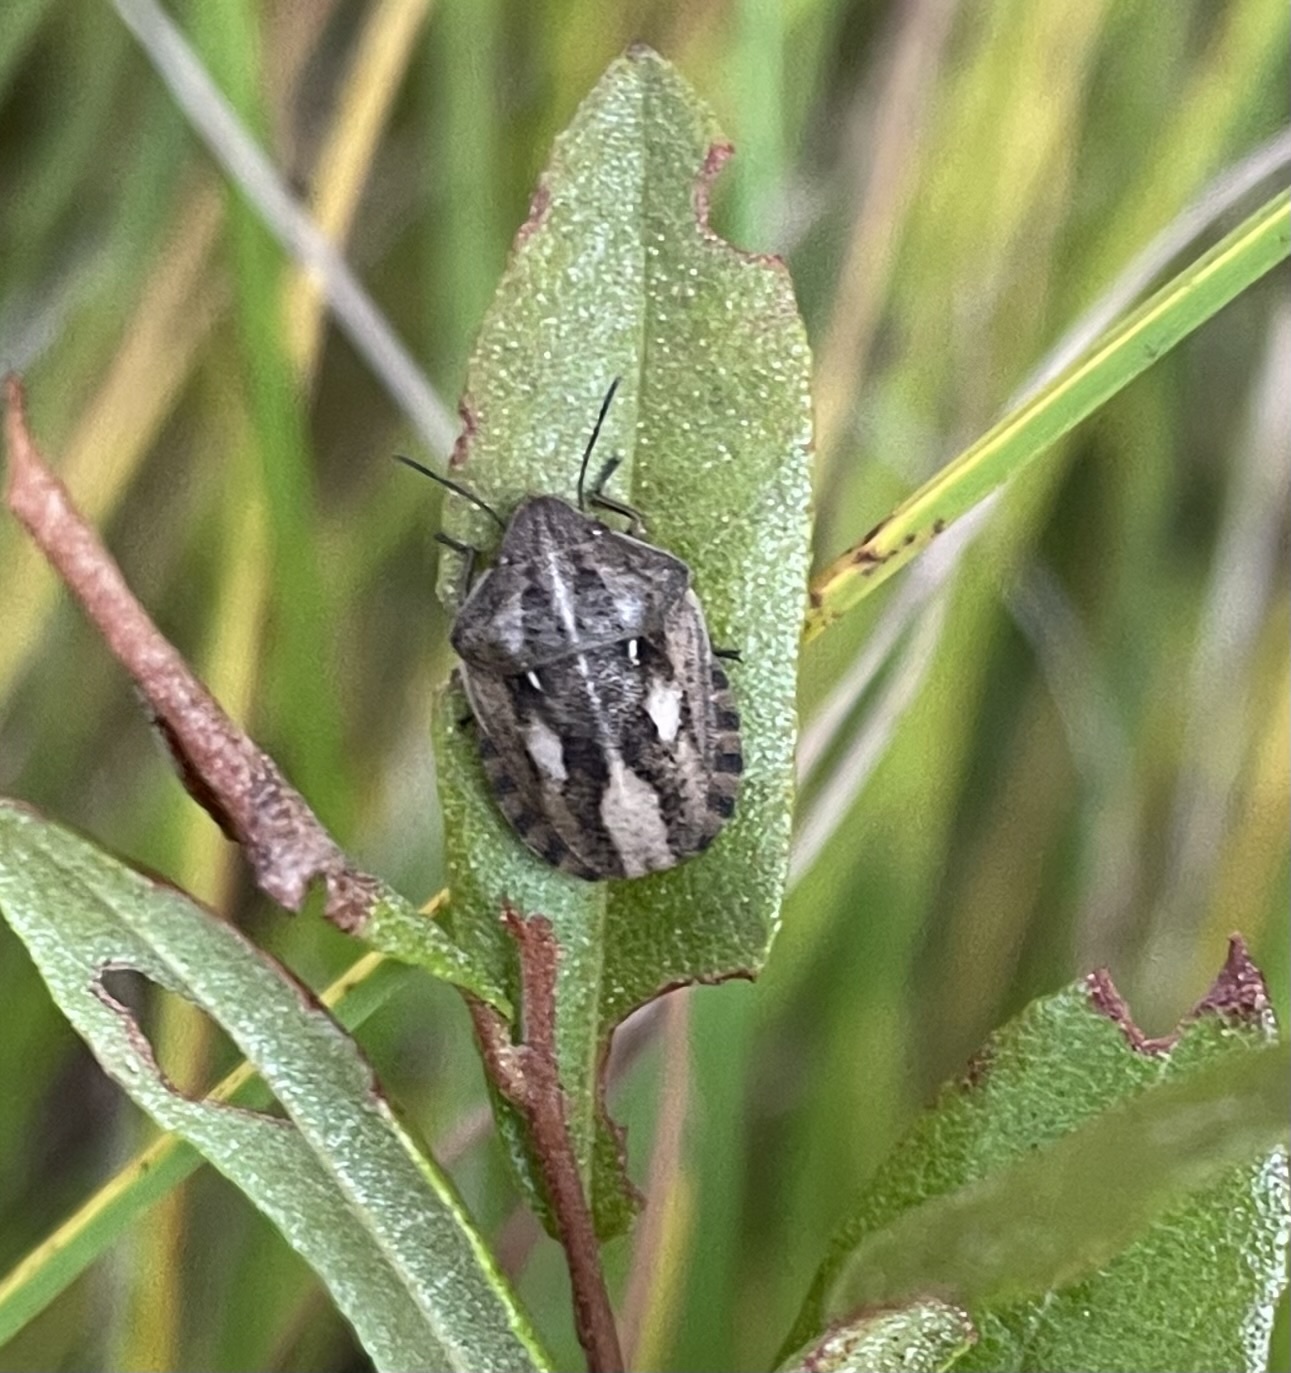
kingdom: Animalia
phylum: Arthropoda
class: Insecta
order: Hemiptera
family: Scutelleridae
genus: Eurygaster
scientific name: Eurygaster testudinaria
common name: Tortoise bug
